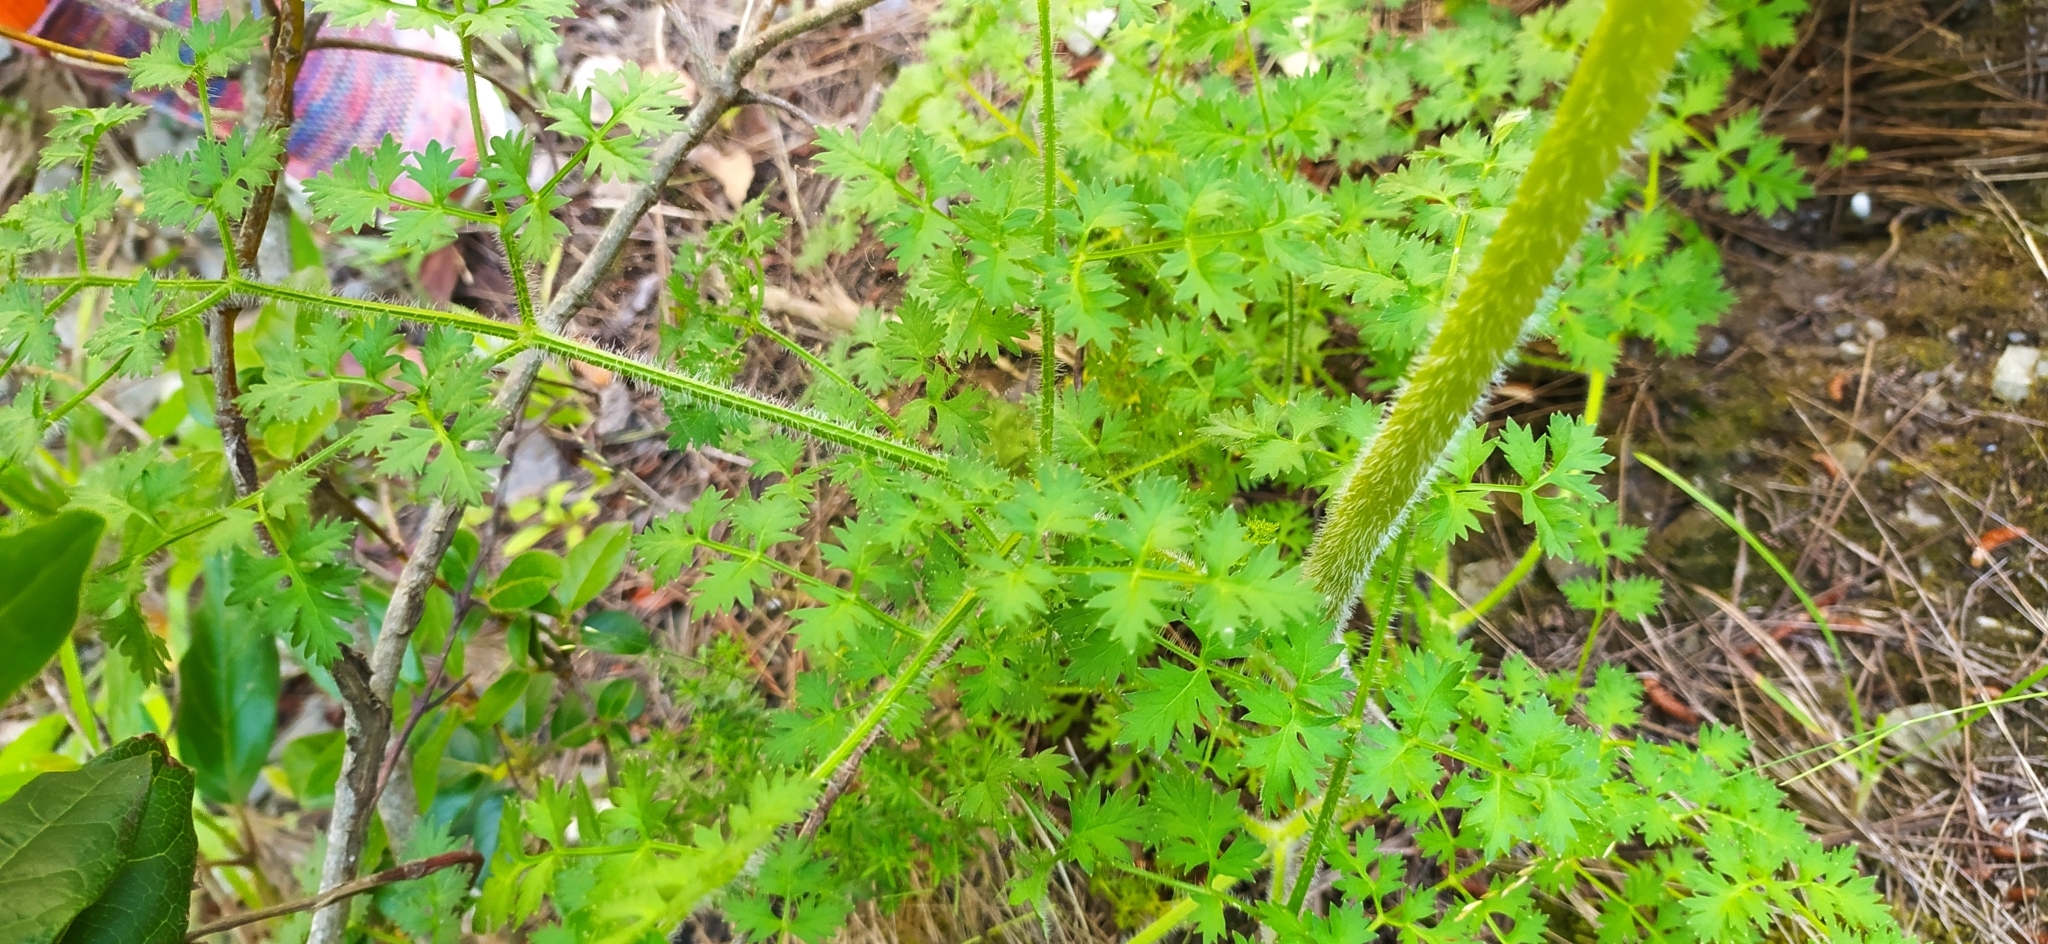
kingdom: Plantae
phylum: Tracheophyta
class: Magnoliopsida
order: Apiales
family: Apiaceae
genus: Daucus
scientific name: Daucus carota
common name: Wild carrot
